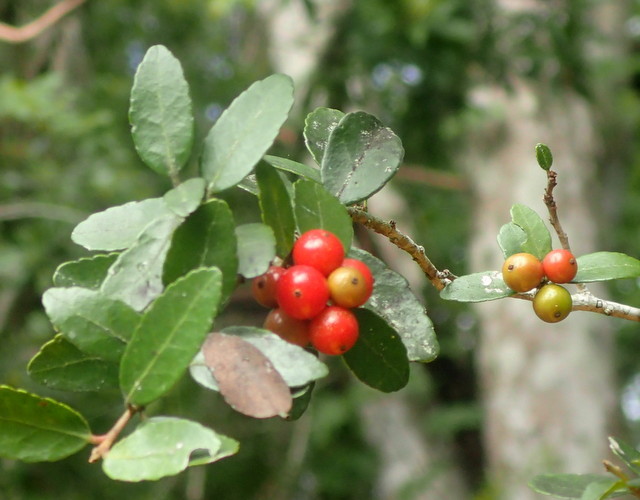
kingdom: Plantae
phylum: Tracheophyta
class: Magnoliopsida
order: Aquifoliales
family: Aquifoliaceae
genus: Ilex
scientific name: Ilex vomitoria
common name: Yaupon holly
